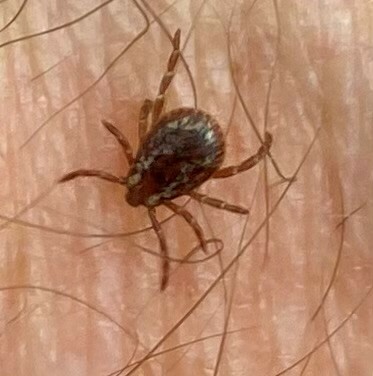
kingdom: Animalia
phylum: Arthropoda
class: Arachnida
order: Ixodida
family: Ixodidae
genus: Dermacentor
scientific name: Dermacentor variabilis
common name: American dog tick
